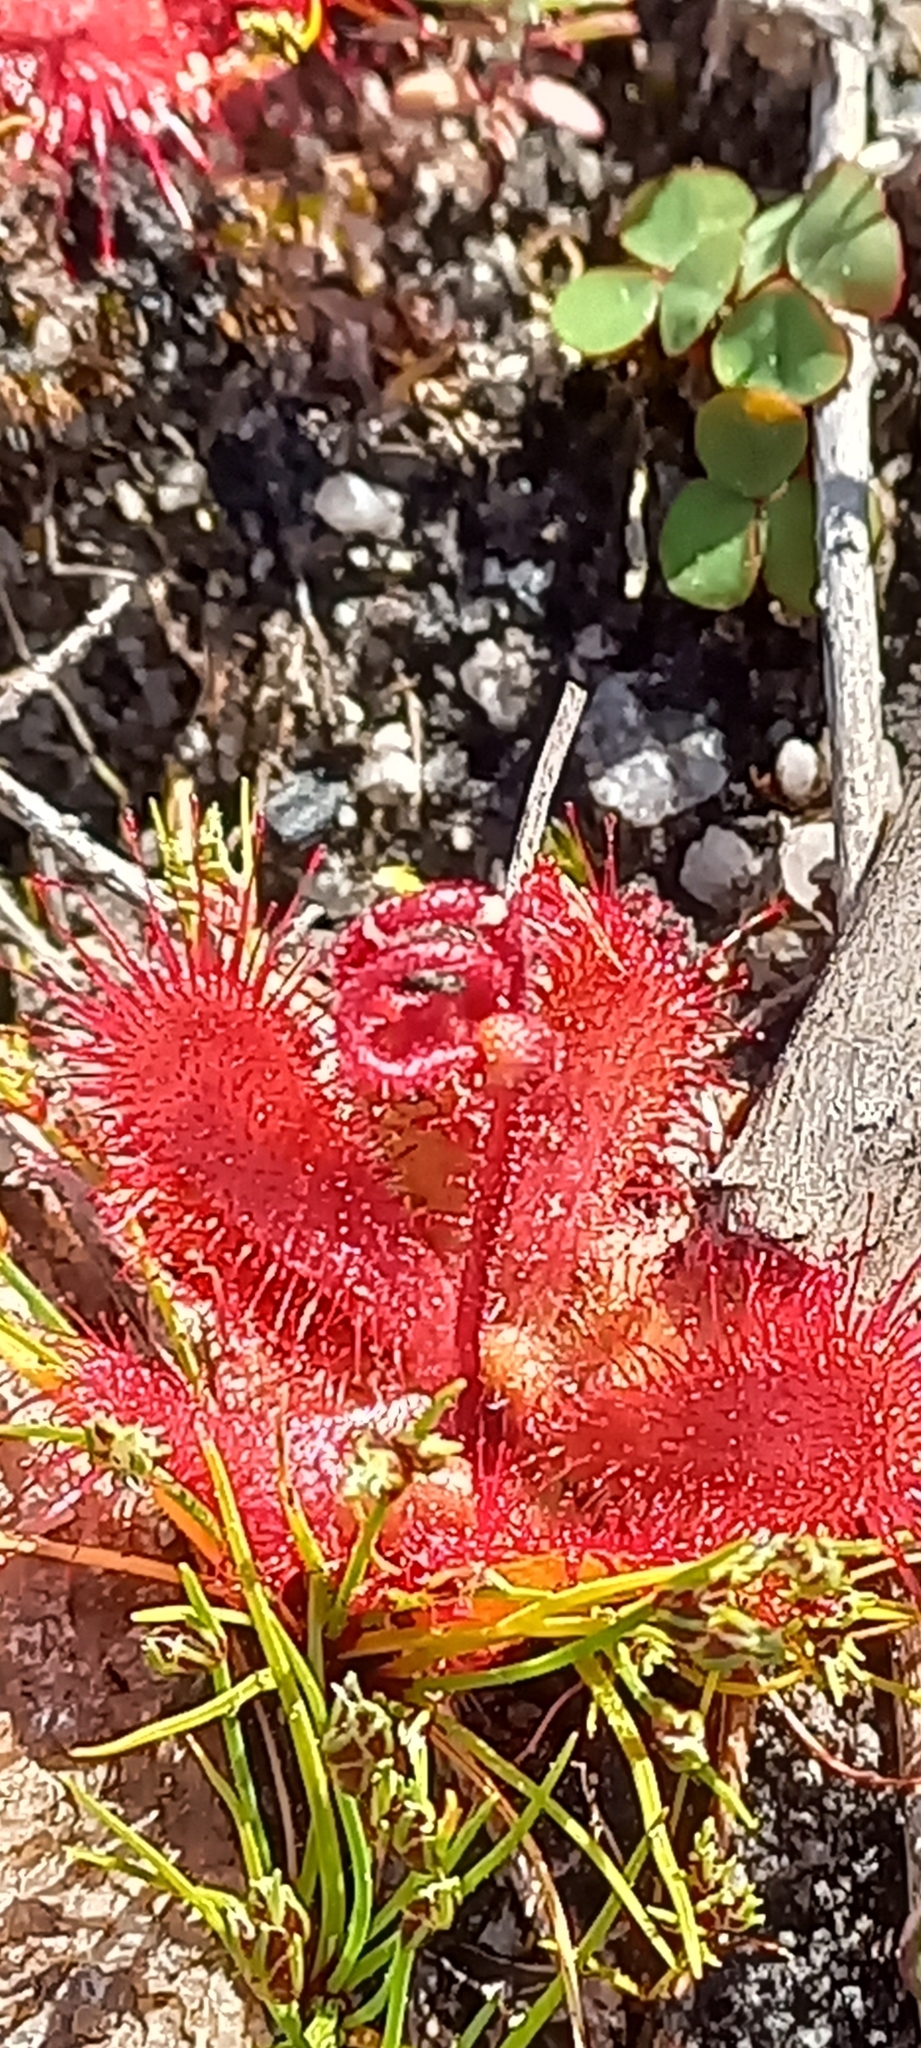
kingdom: Plantae
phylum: Tracheophyta
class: Magnoliopsida
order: Caryophyllales
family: Droseraceae
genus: Drosera
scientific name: Drosera trinervia
